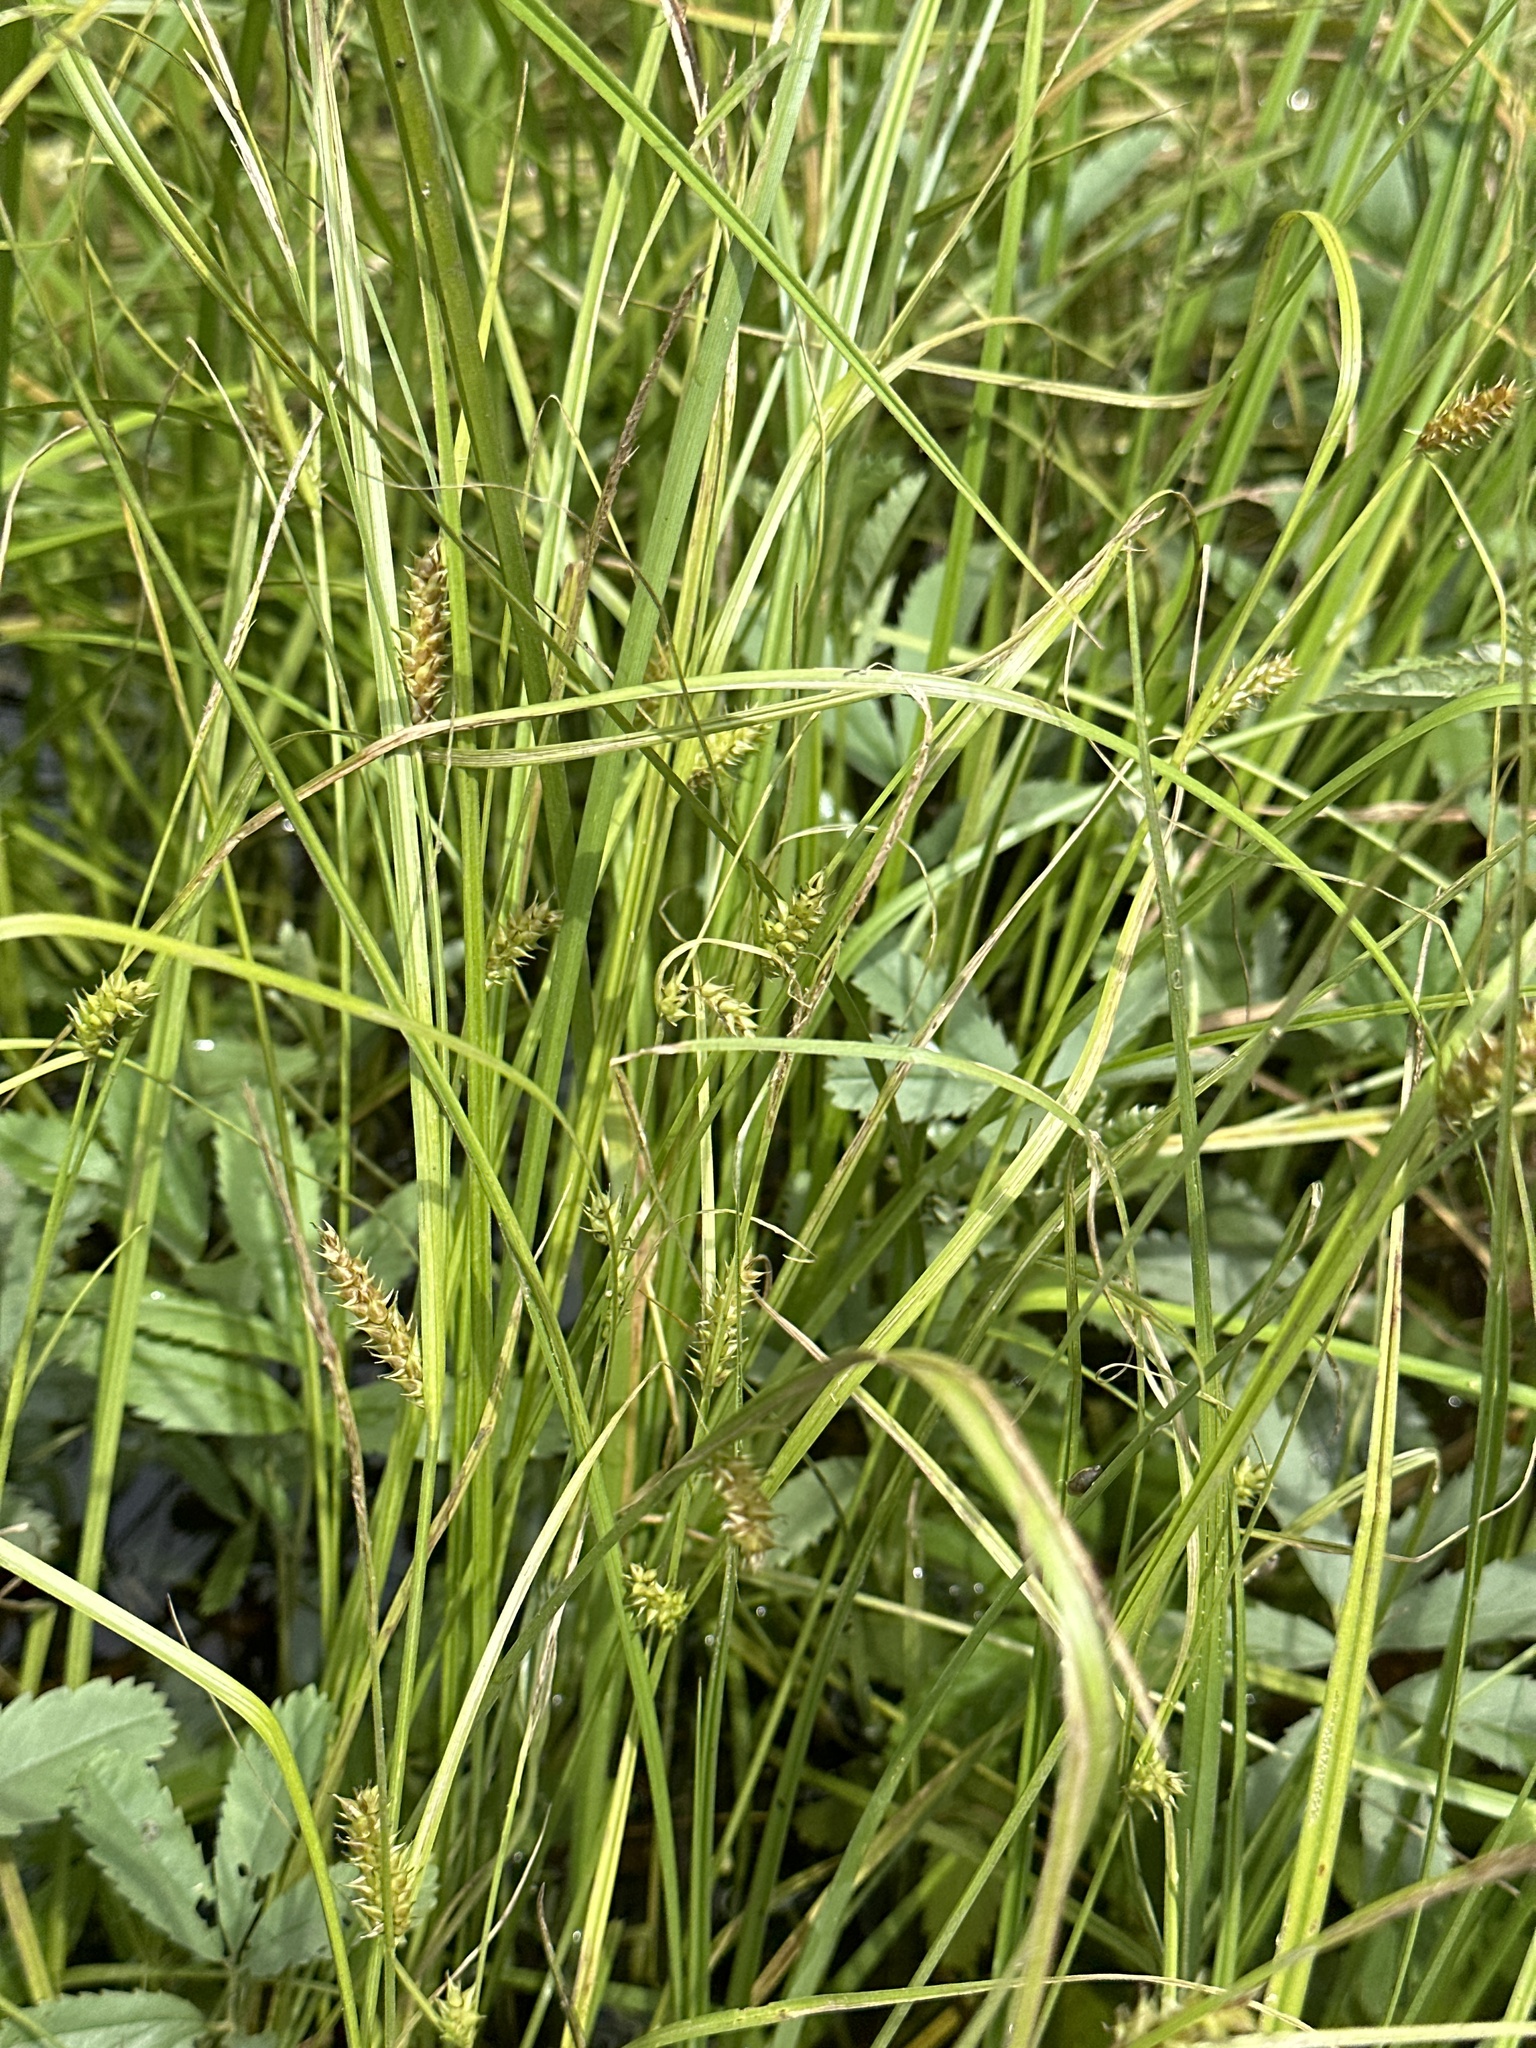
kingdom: Plantae
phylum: Tracheophyta
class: Liliopsida
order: Poales
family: Cyperaceae
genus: Carex
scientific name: Carex vesicaria
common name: Bladder-sedge
